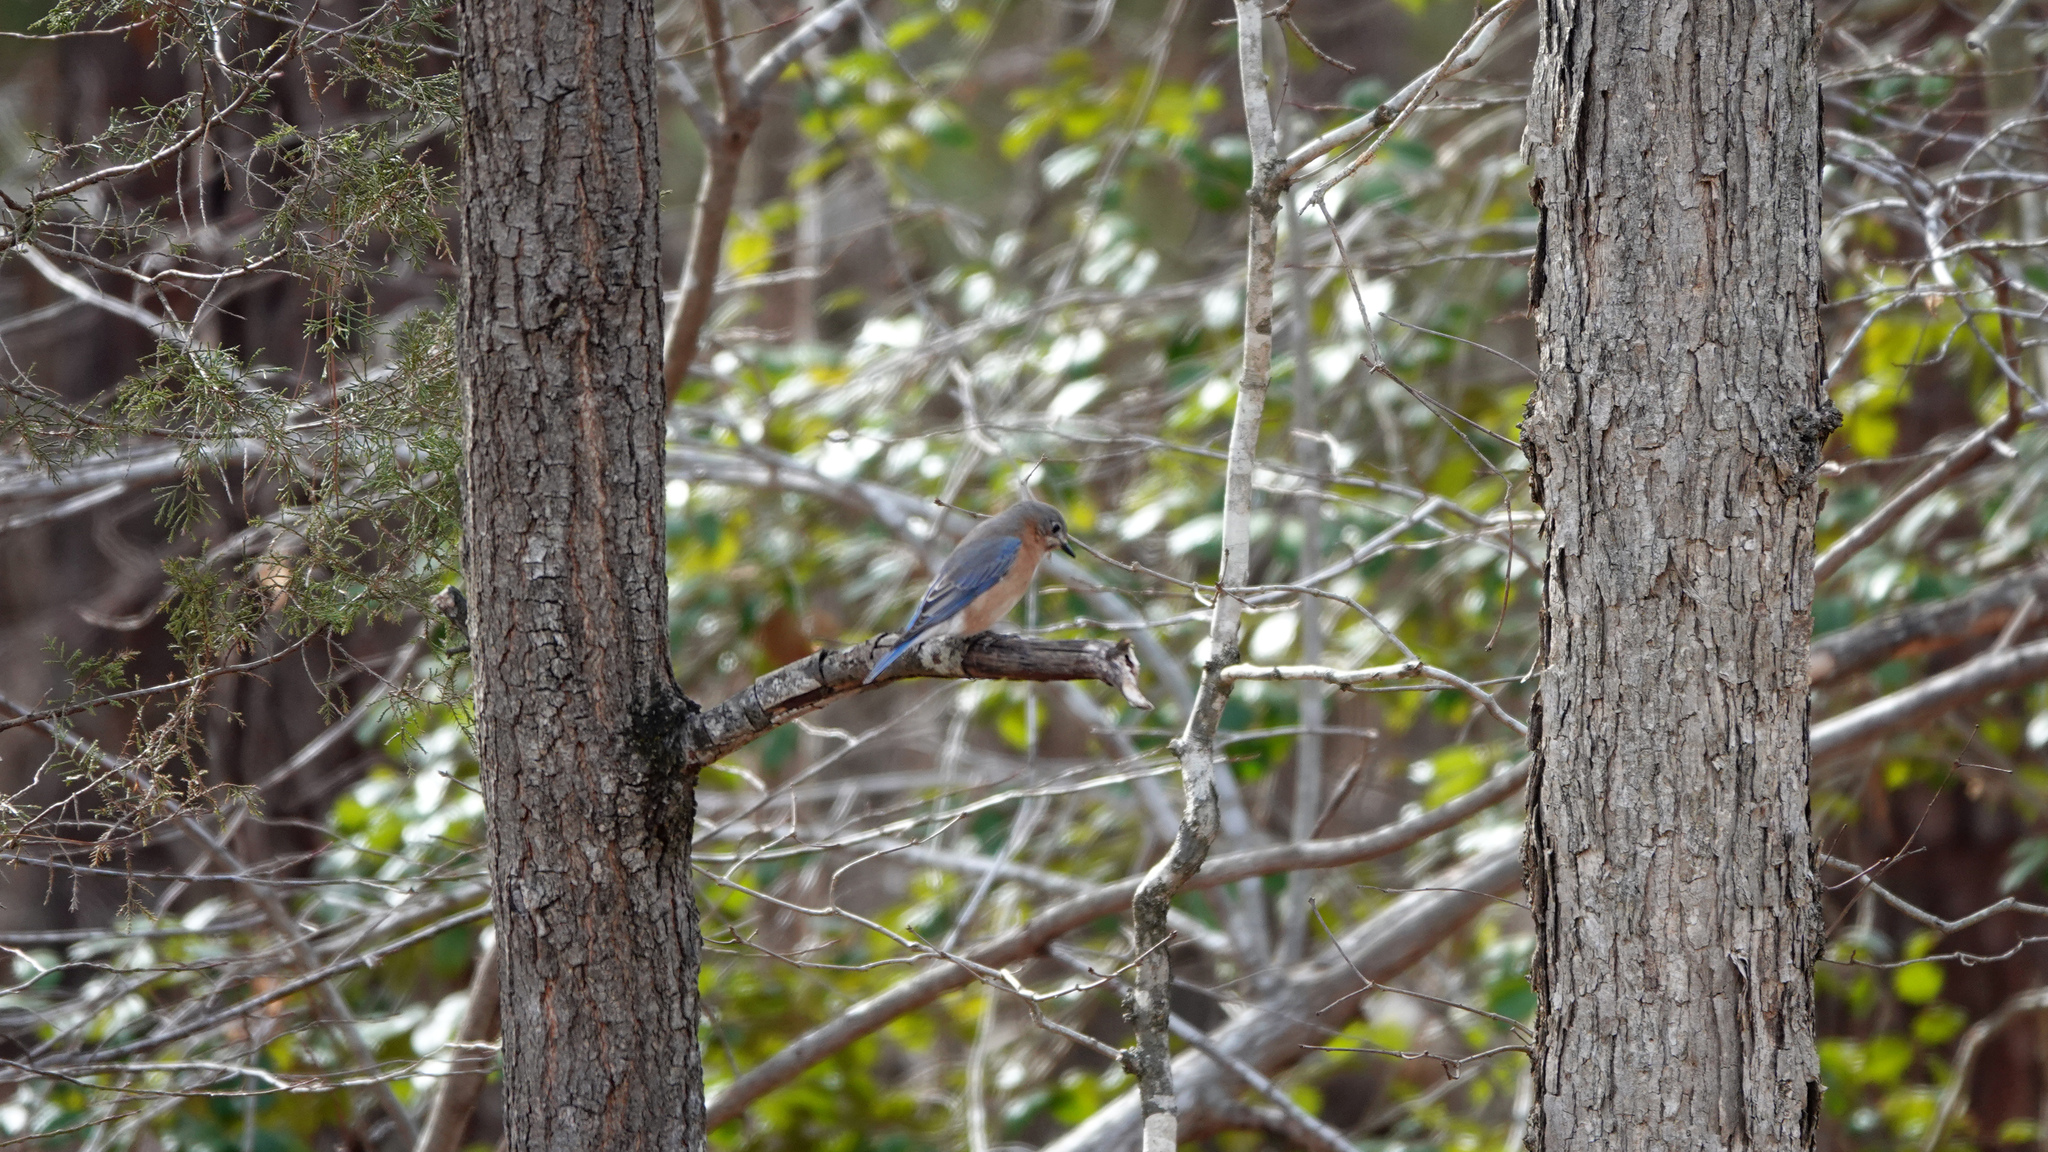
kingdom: Animalia
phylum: Chordata
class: Aves
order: Passeriformes
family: Turdidae
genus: Sialia
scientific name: Sialia sialis
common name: Eastern bluebird
